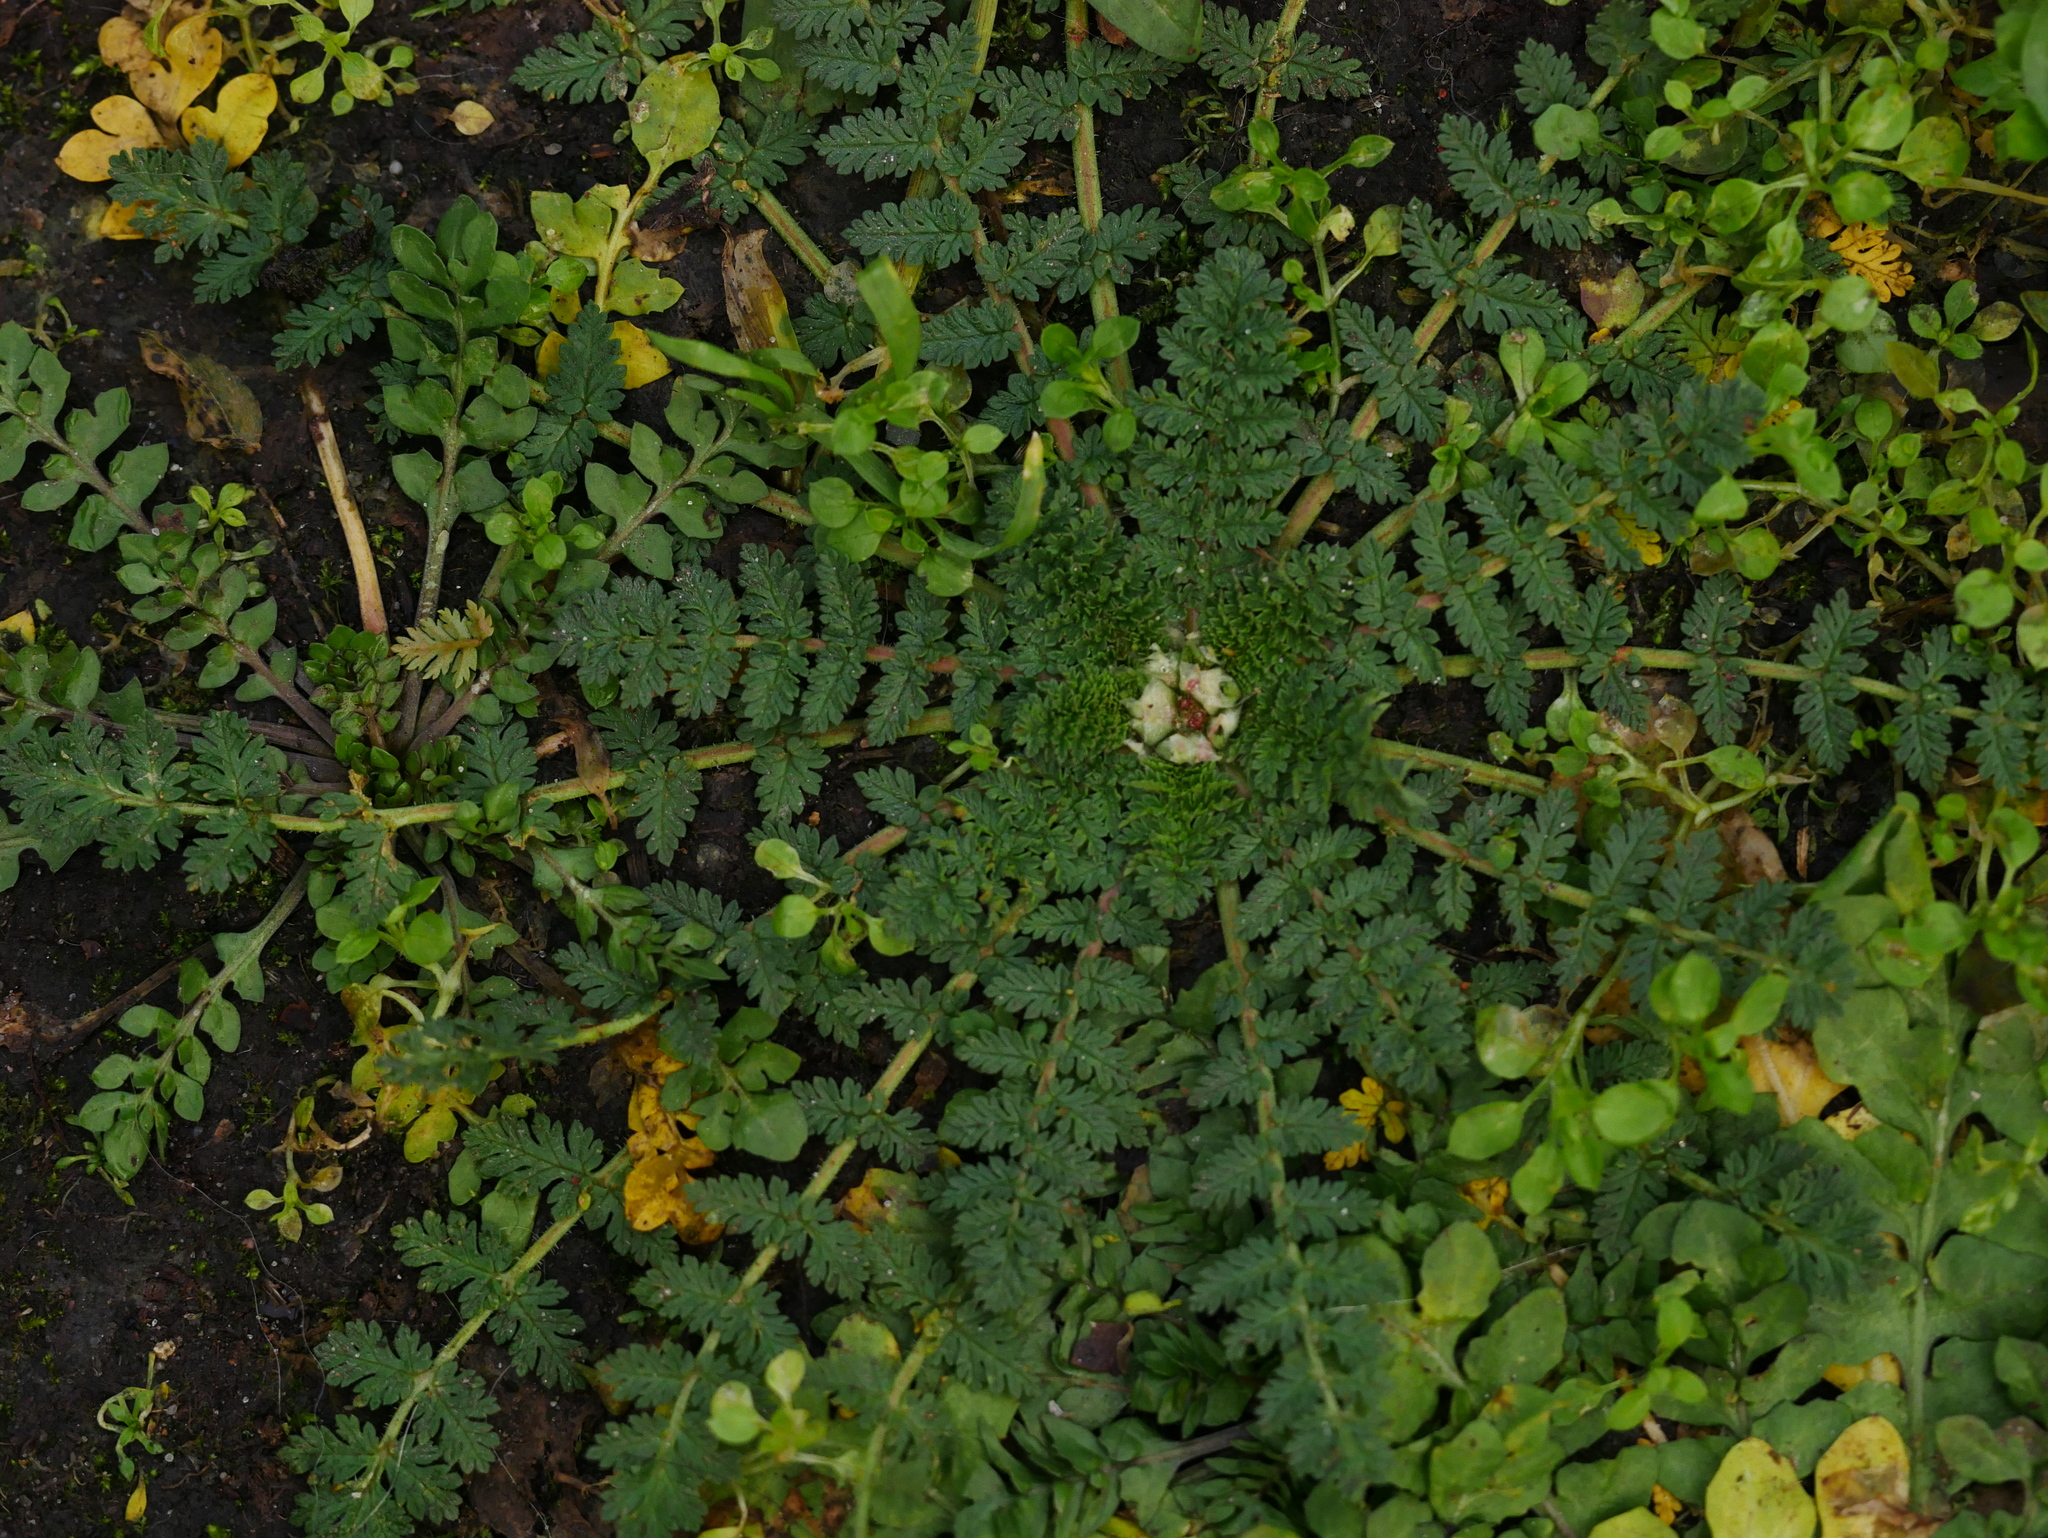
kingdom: Plantae
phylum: Tracheophyta
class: Magnoliopsida
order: Geraniales
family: Geraniaceae
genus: Erodium
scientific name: Erodium cicutarium
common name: Common stork's-bill
